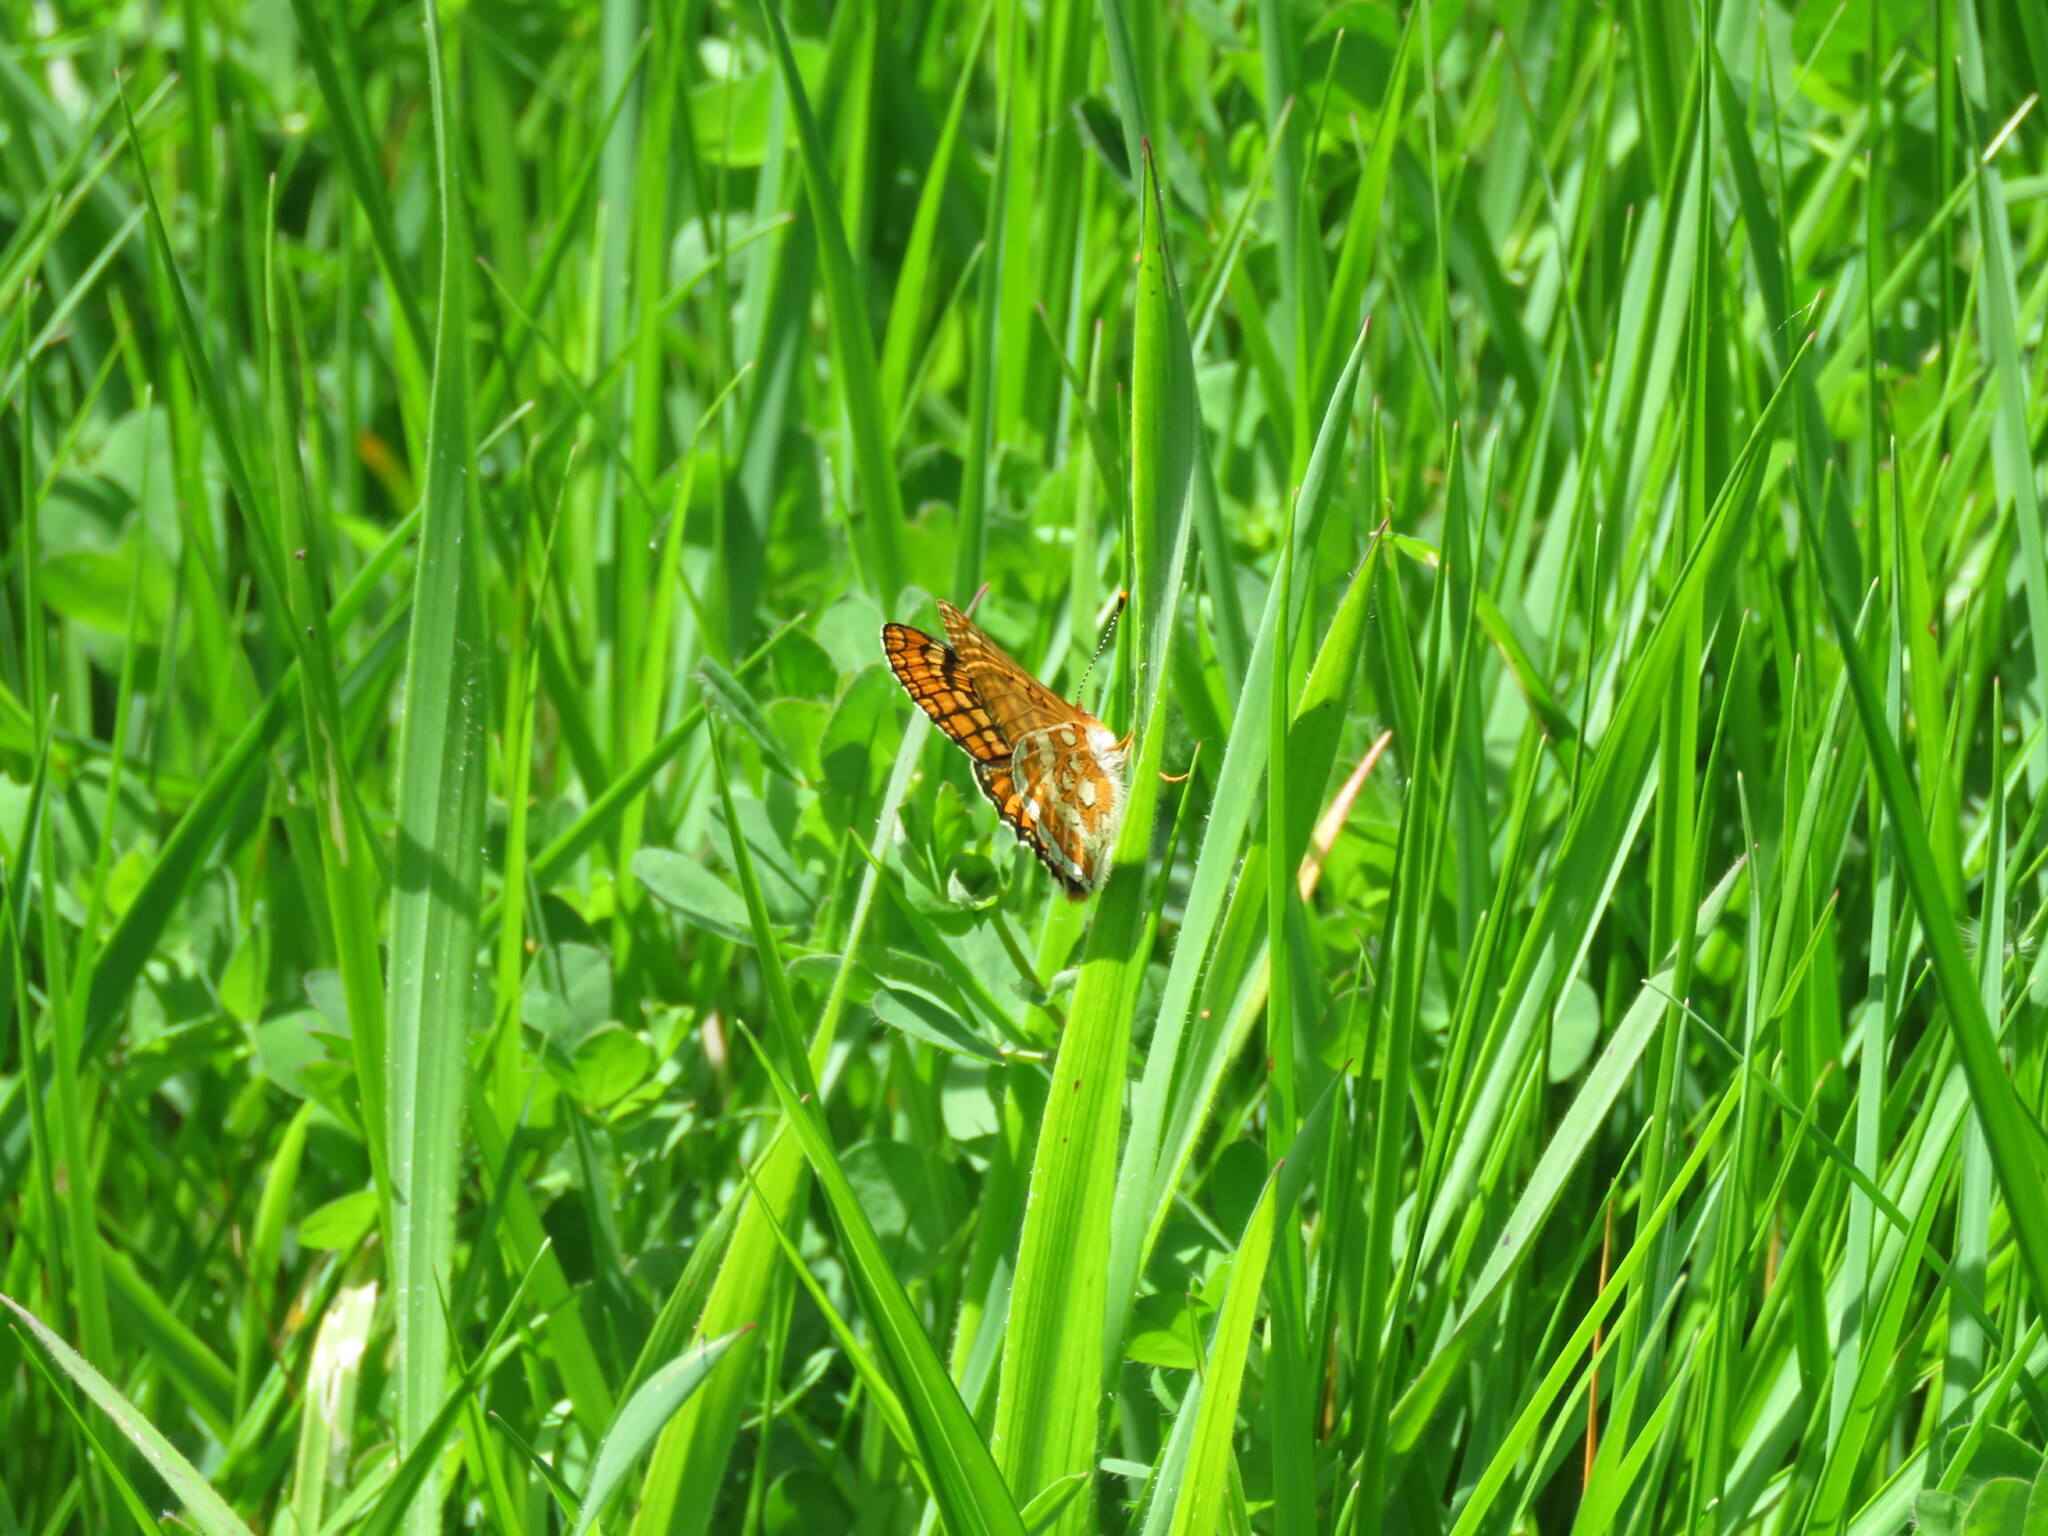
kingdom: Animalia
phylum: Arthropoda
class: Insecta
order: Lepidoptera
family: Nymphalidae
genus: Euphydryas
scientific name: Euphydryas aurinia
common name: Marsh fritillary
